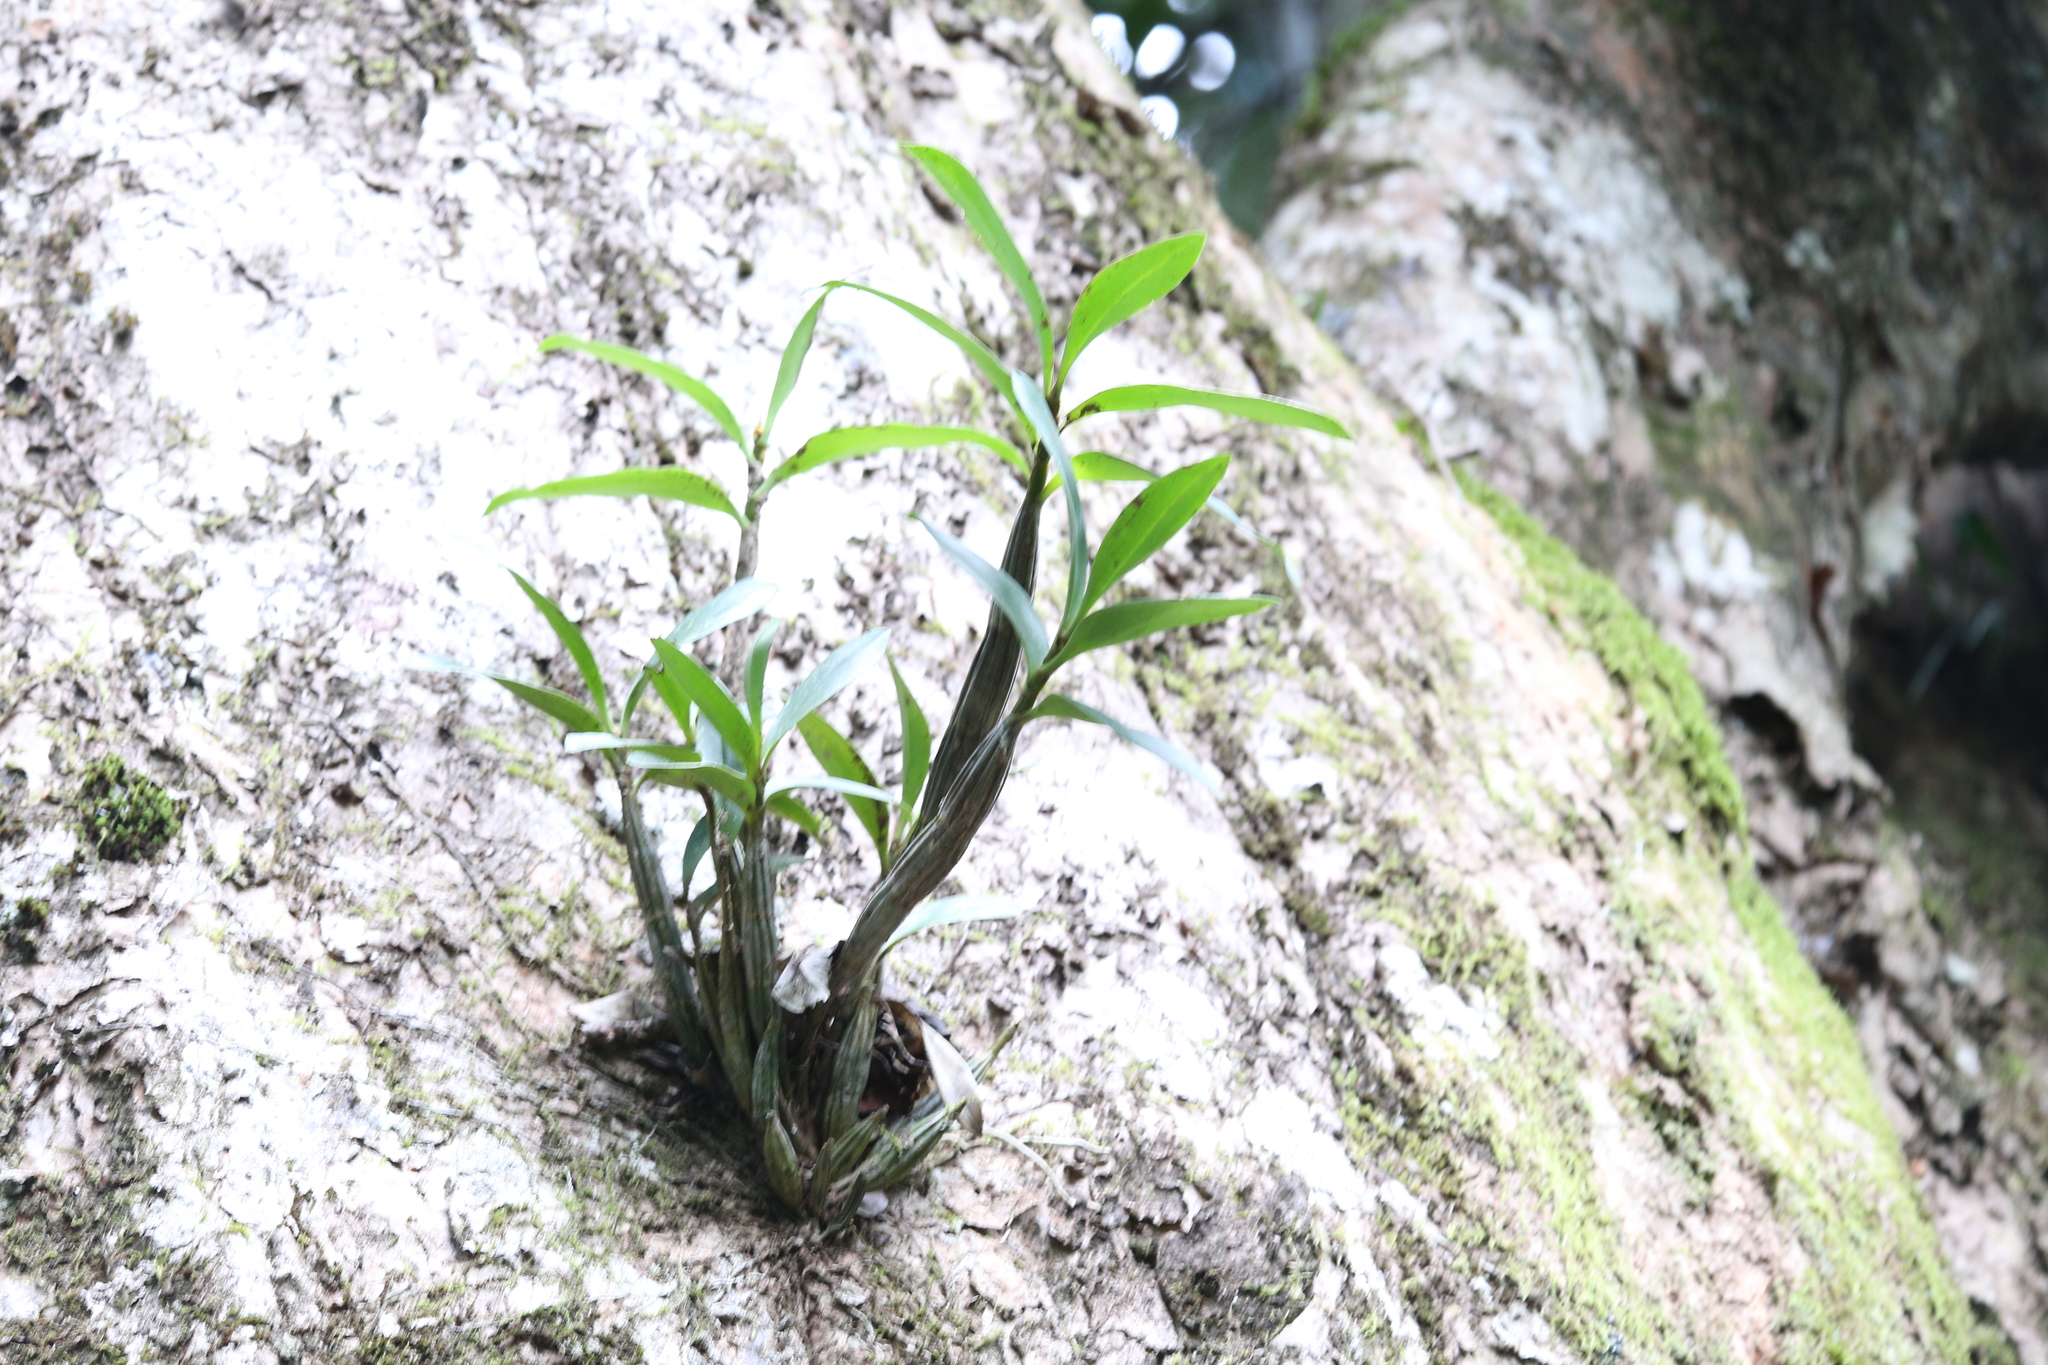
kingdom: Plantae
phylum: Tracheophyta
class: Liliopsida
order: Asparagales
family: Orchidaceae
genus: Dendrobium
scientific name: Dendrobium jonesii
